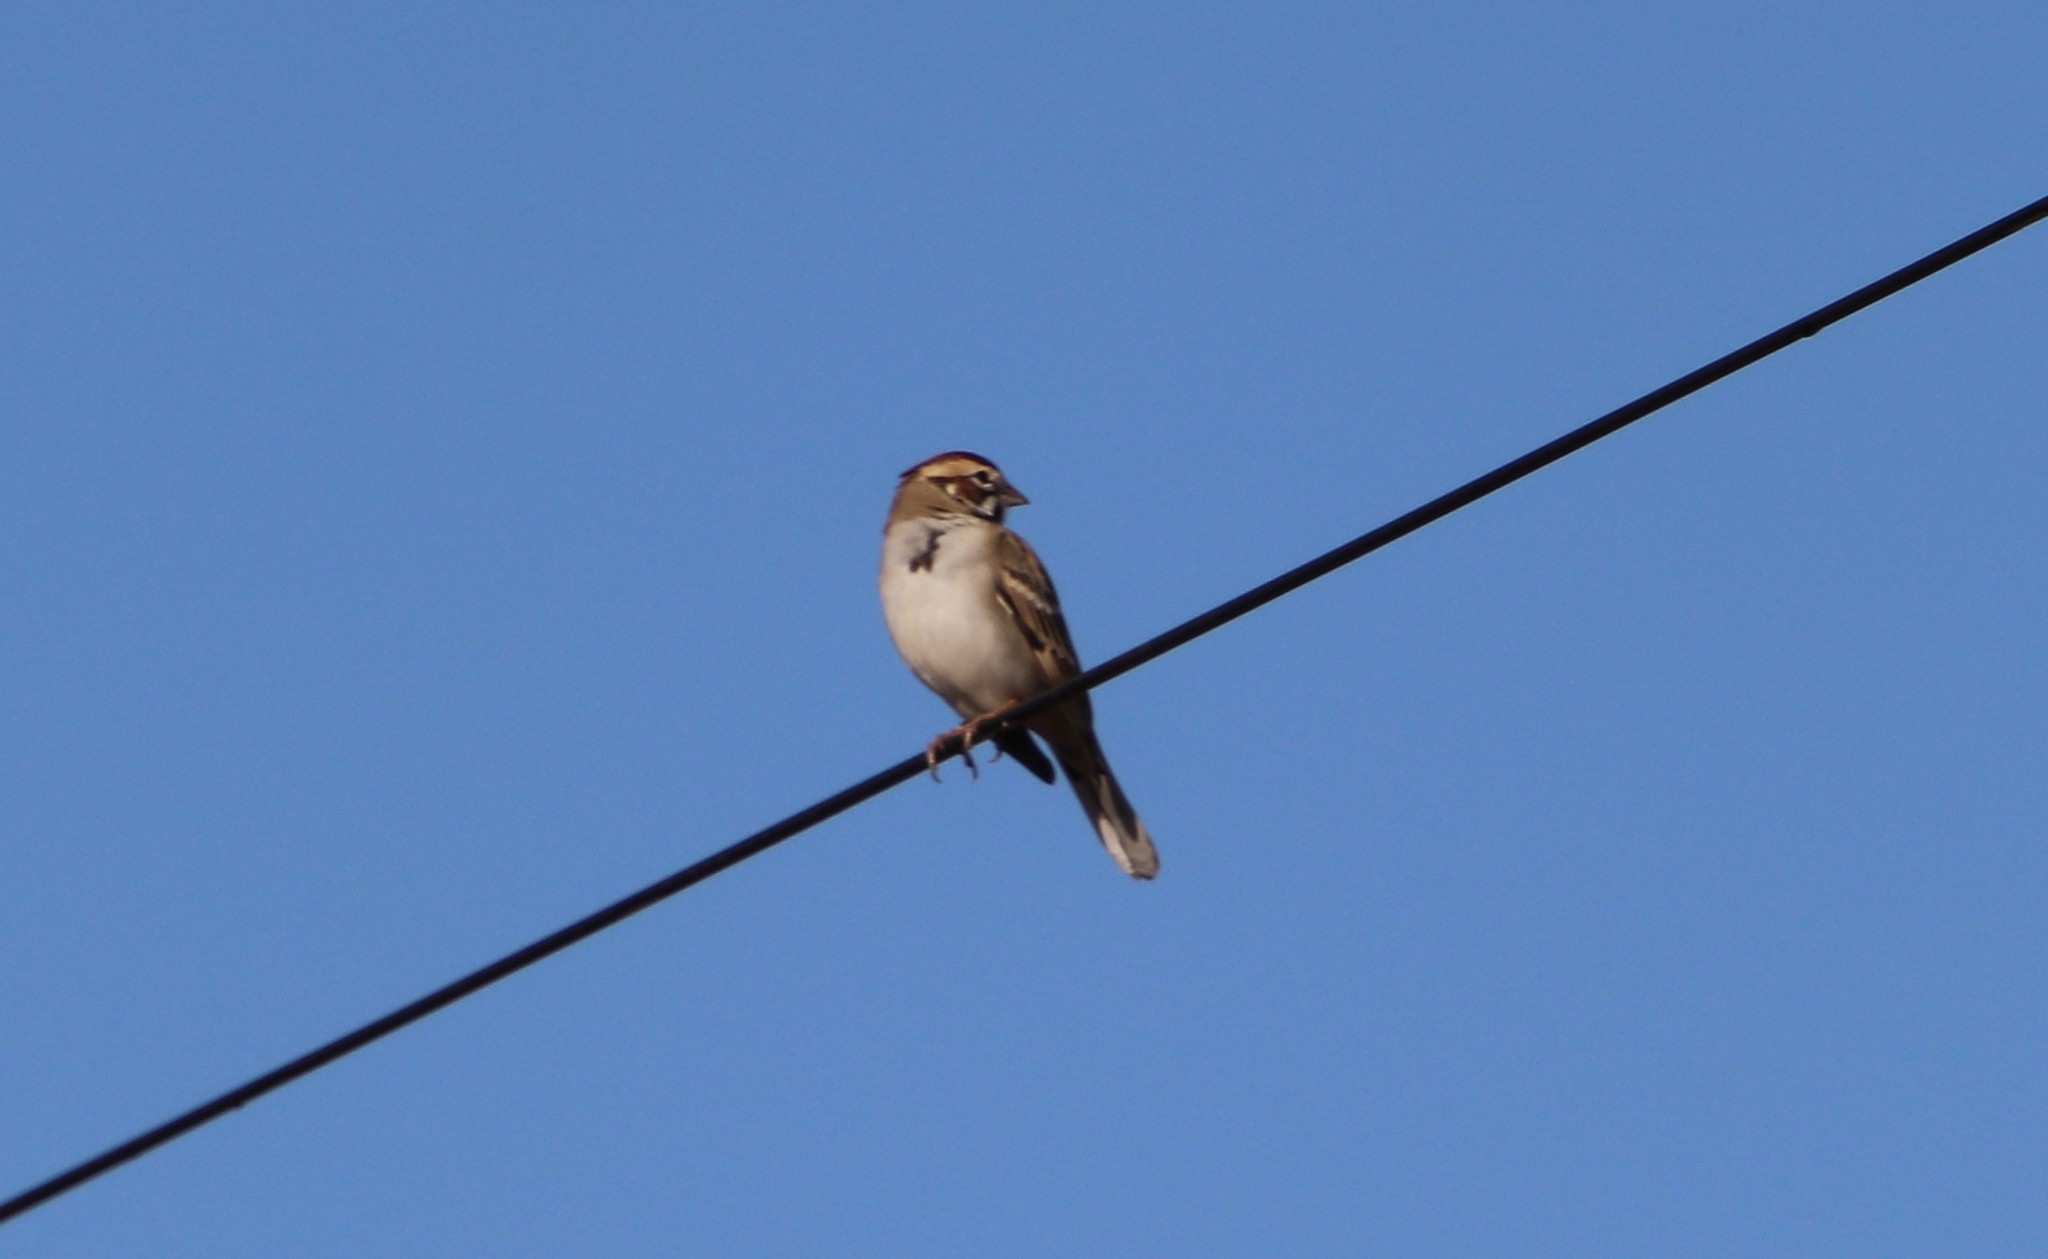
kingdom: Animalia
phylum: Chordata
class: Aves
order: Passeriformes
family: Passerellidae
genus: Chondestes
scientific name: Chondestes grammacus
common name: Lark sparrow
